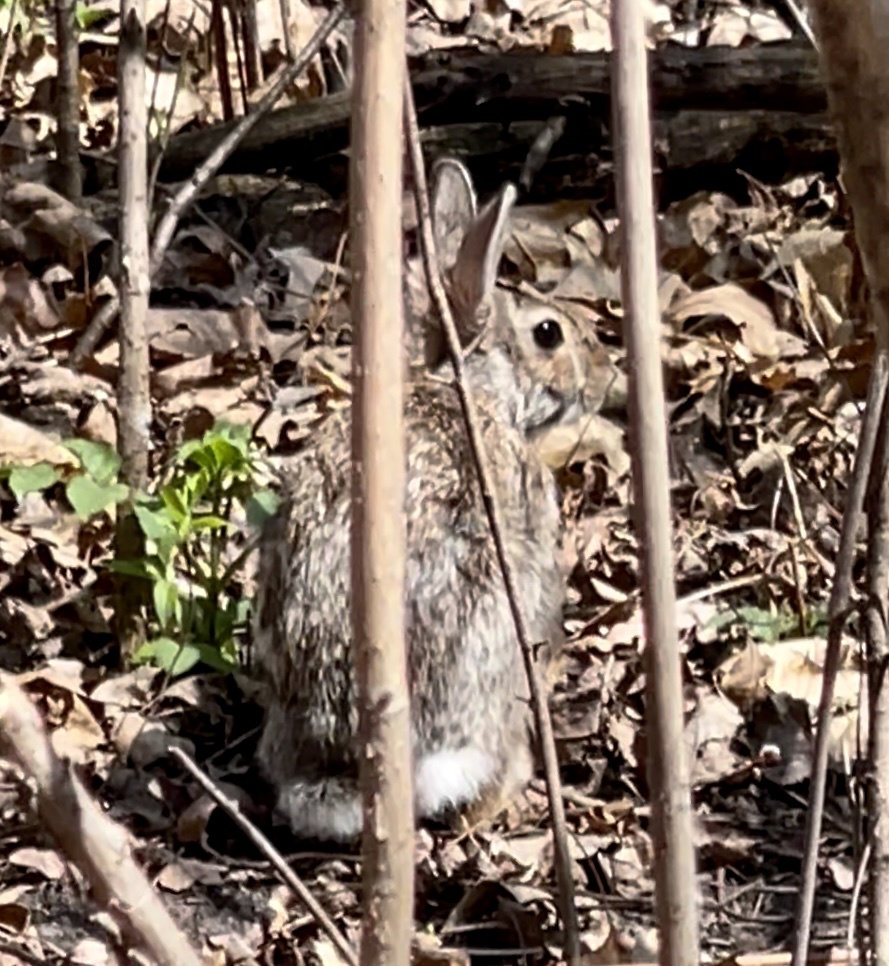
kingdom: Animalia
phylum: Chordata
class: Mammalia
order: Lagomorpha
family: Leporidae
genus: Sylvilagus
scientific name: Sylvilagus floridanus
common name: Eastern cottontail
